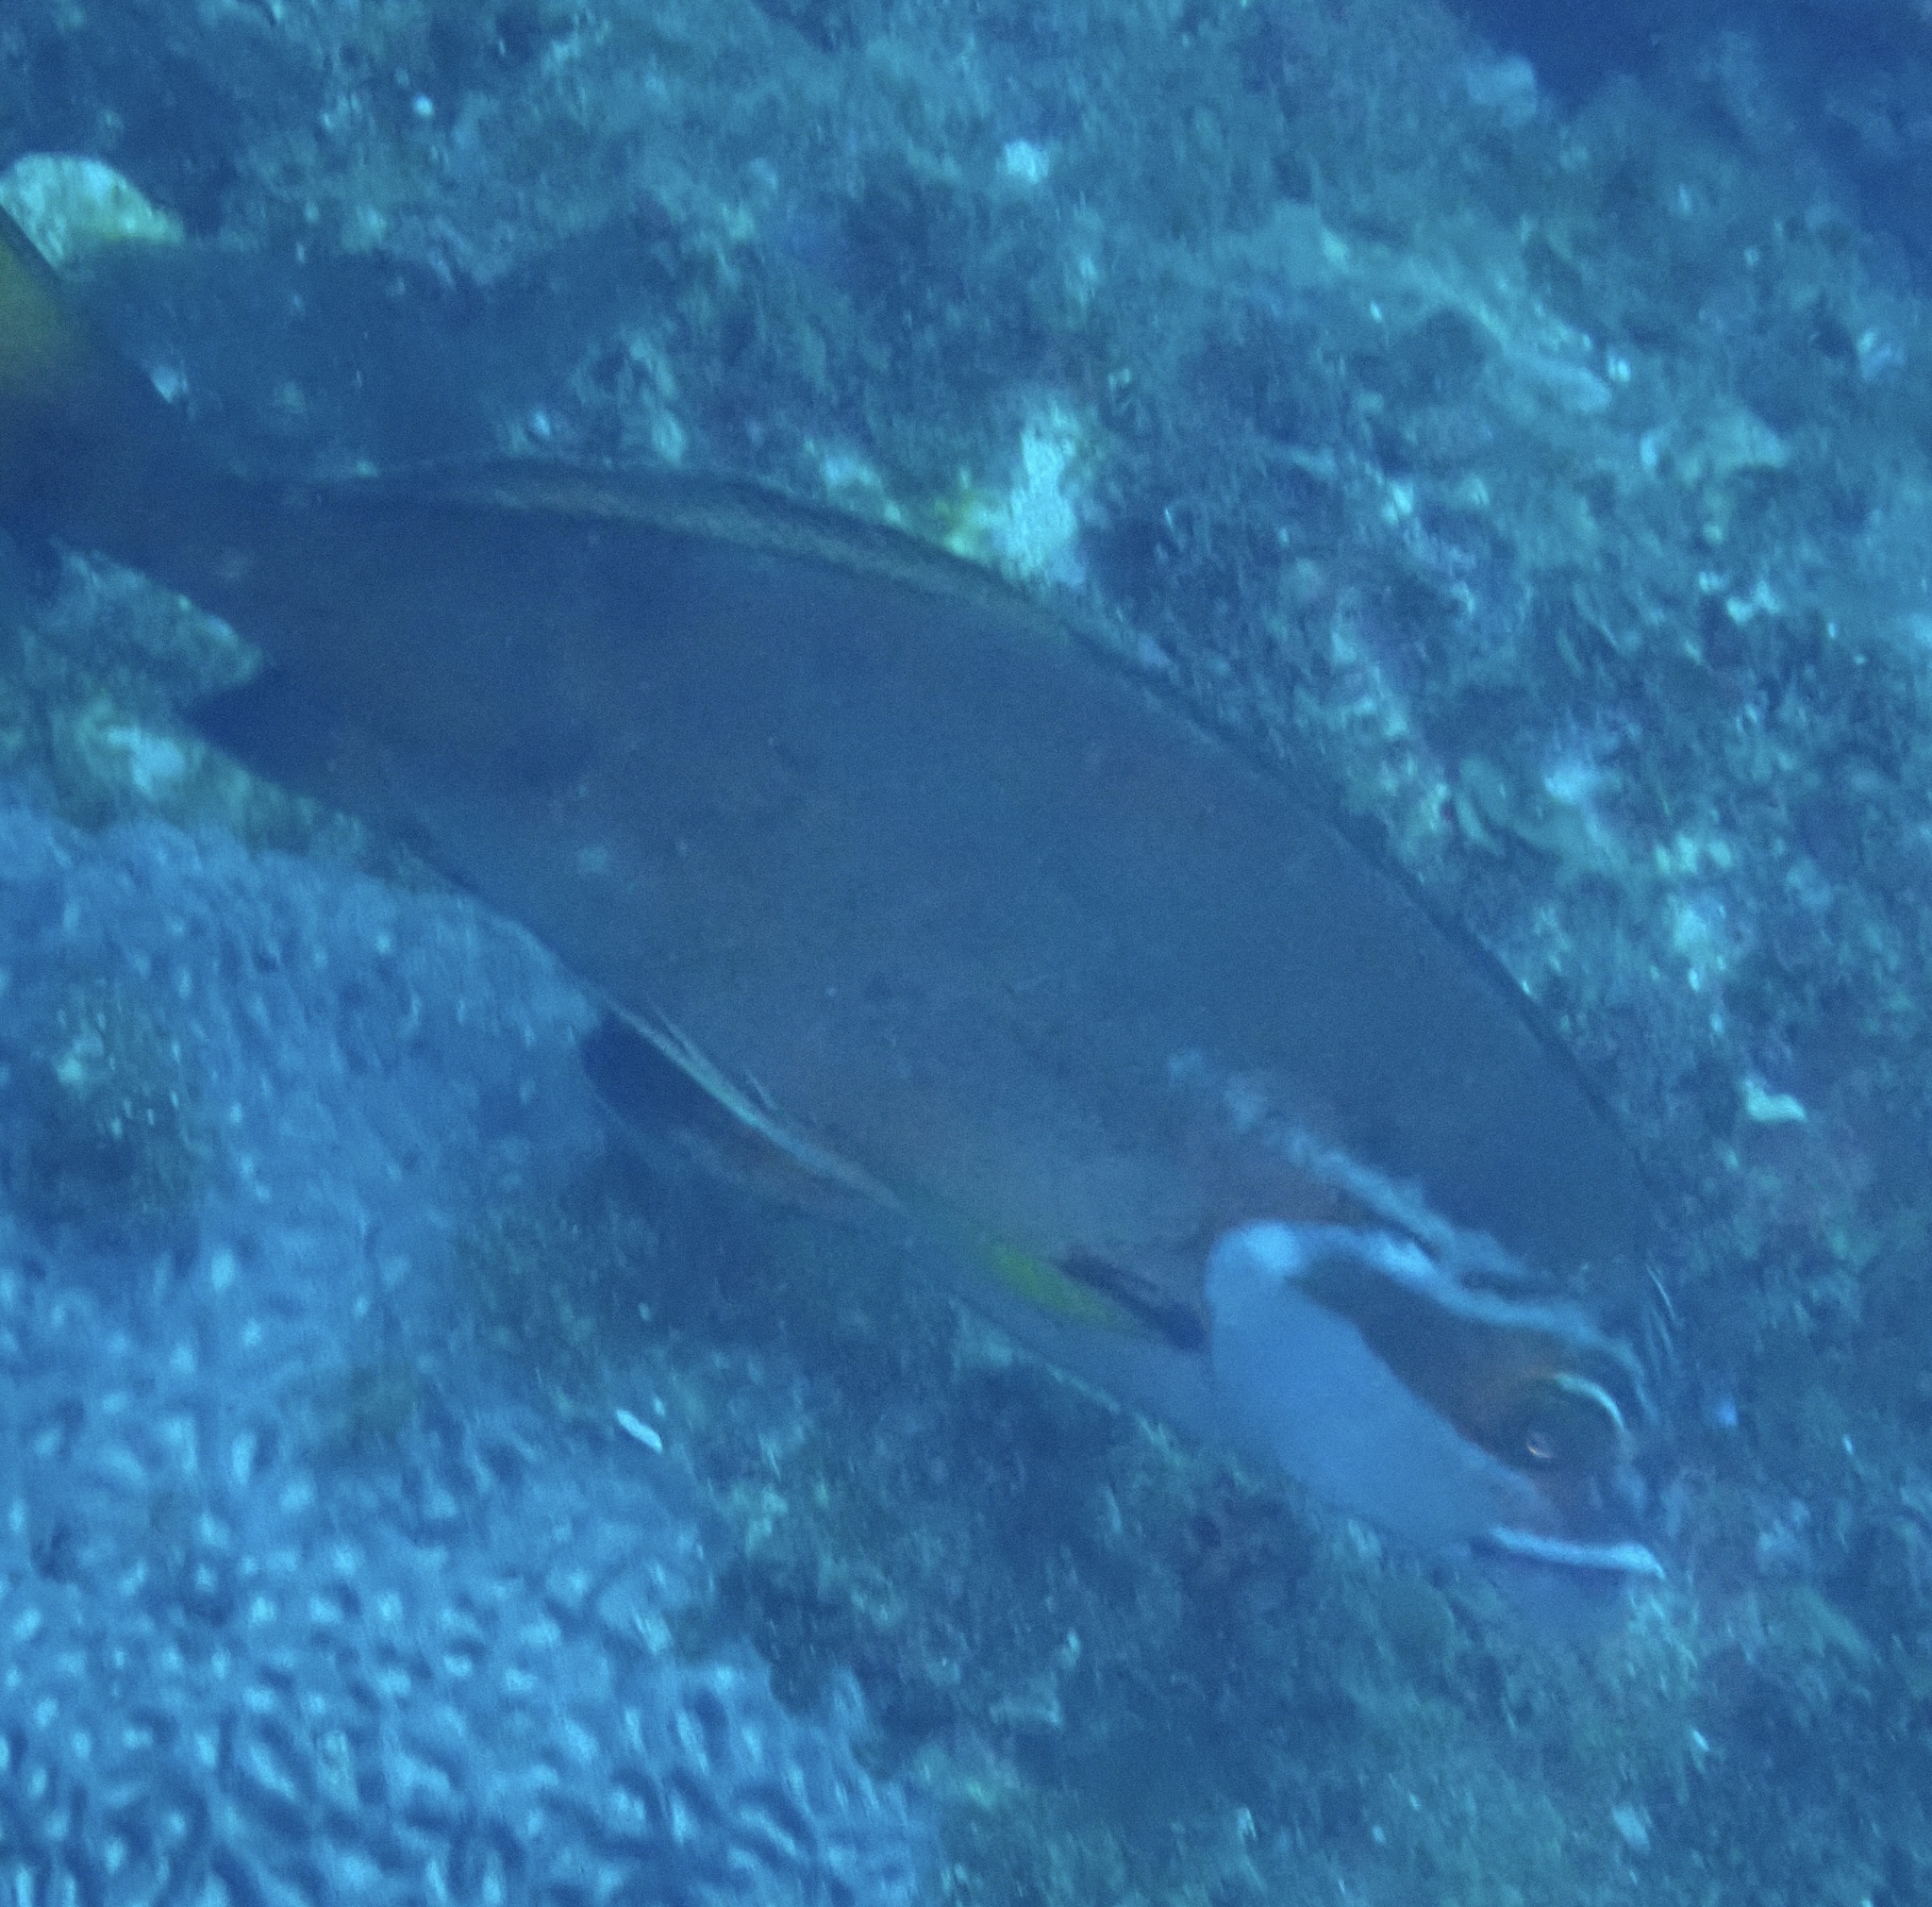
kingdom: Animalia
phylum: Chordata
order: Perciformes
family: Latridae
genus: Morwong
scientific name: Morwong fuscus
